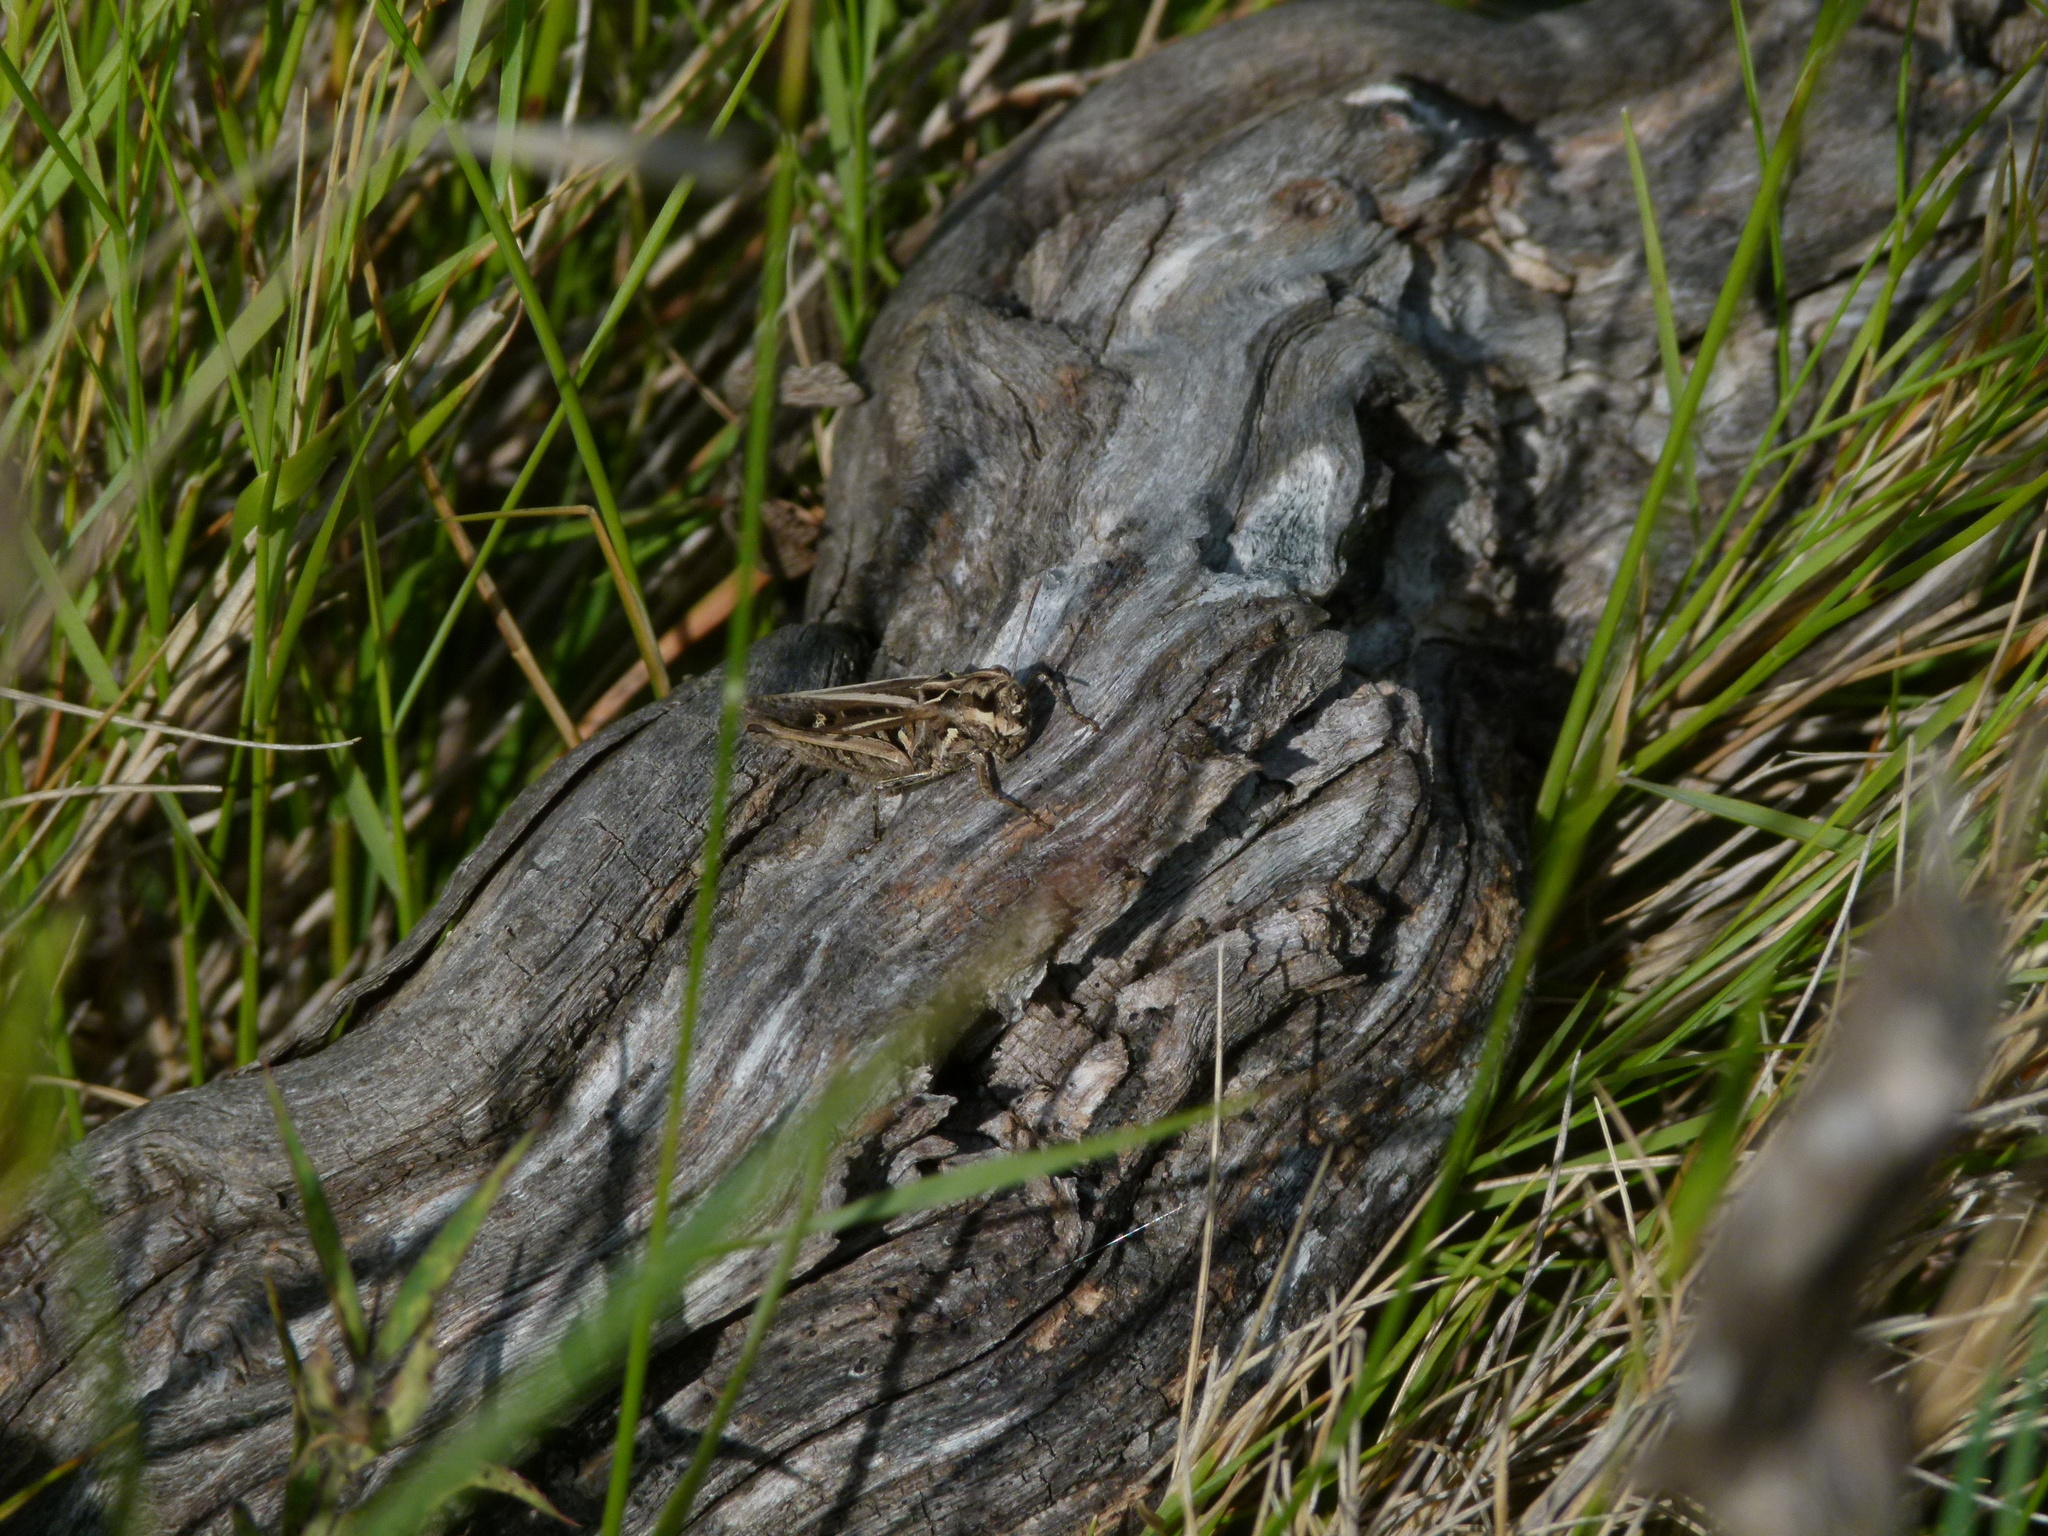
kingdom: Animalia
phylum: Arthropoda
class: Insecta
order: Orthoptera
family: Acrididae
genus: Omocestus
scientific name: Omocestus raymondi
